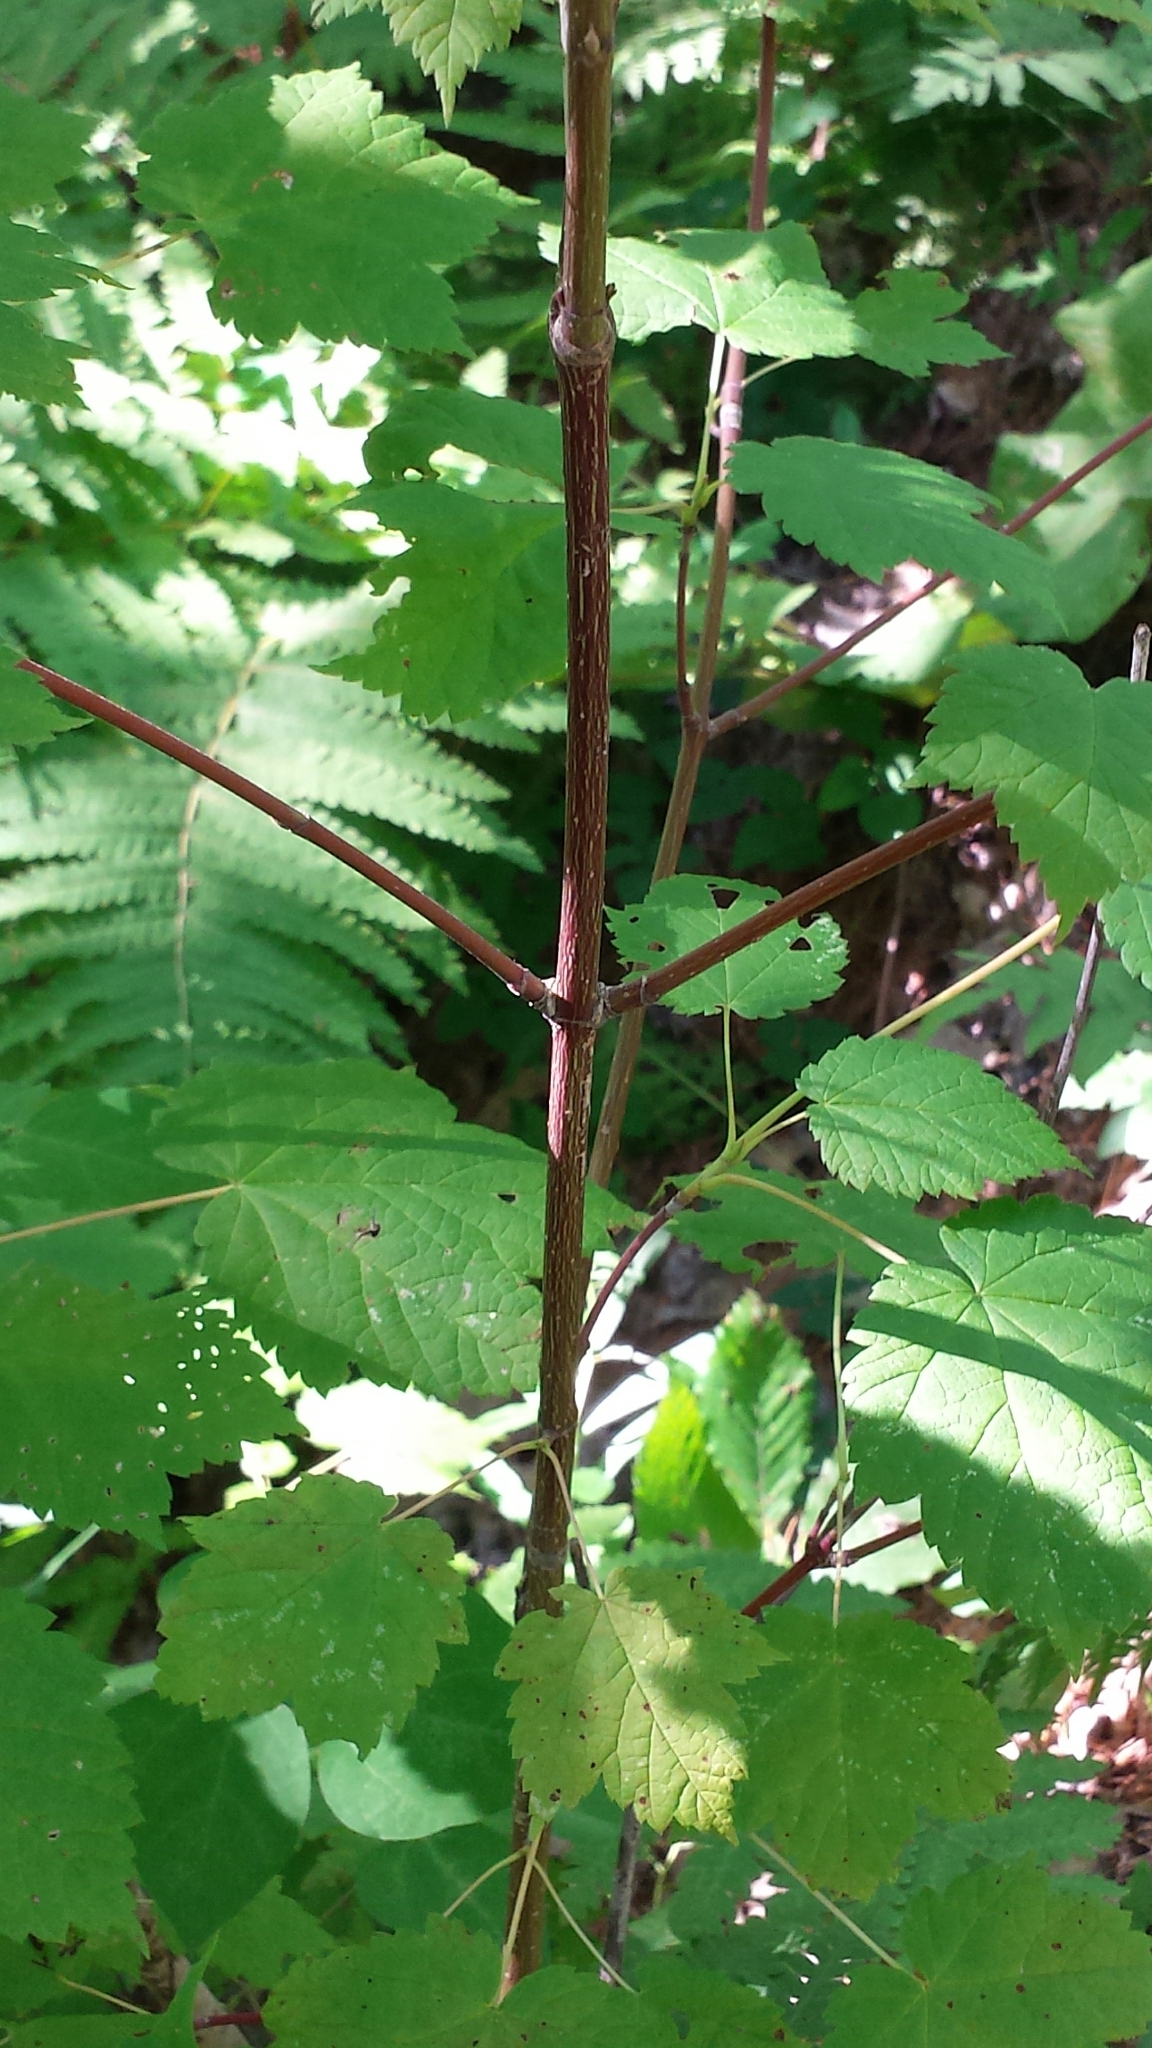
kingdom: Plantae
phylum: Tracheophyta
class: Magnoliopsida
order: Sapindales
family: Sapindaceae
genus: Acer
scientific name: Acer spicatum
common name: Mountain maple
